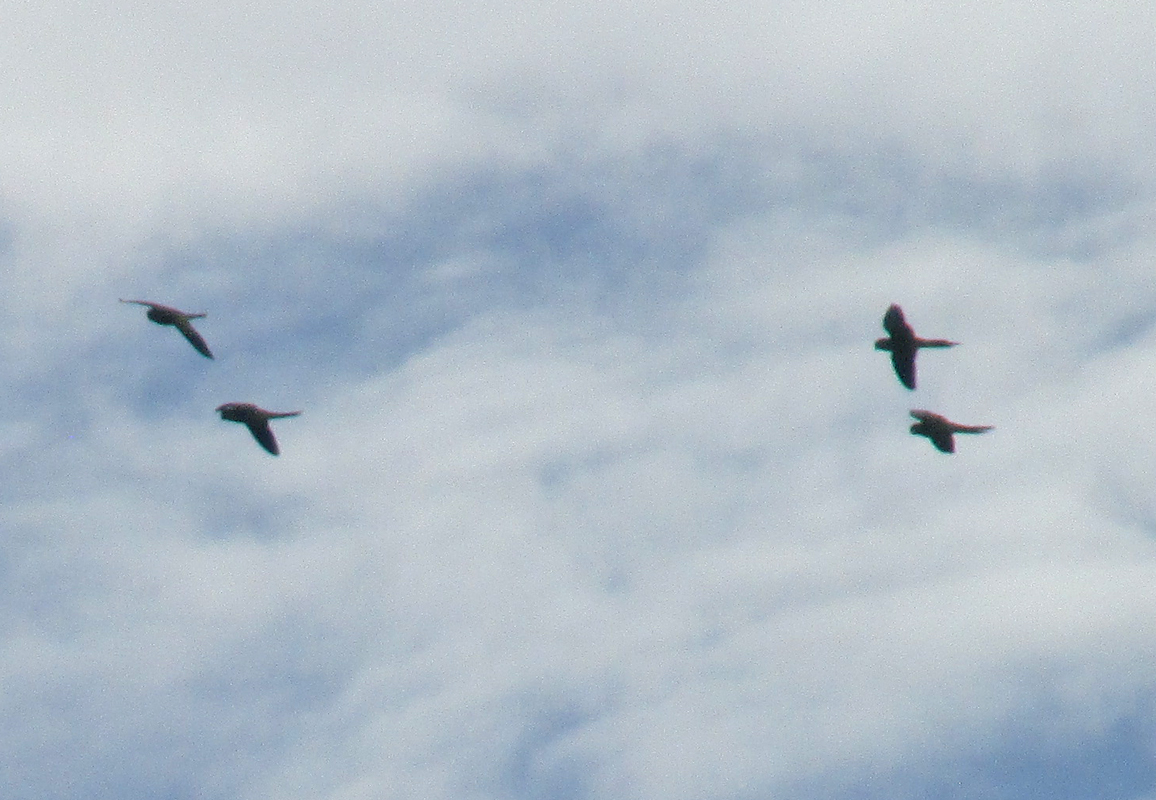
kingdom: Animalia
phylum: Chordata
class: Aves
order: Psittaciformes
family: Psittacidae
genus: Myiopsitta
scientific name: Myiopsitta monachus
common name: Monk parakeet
